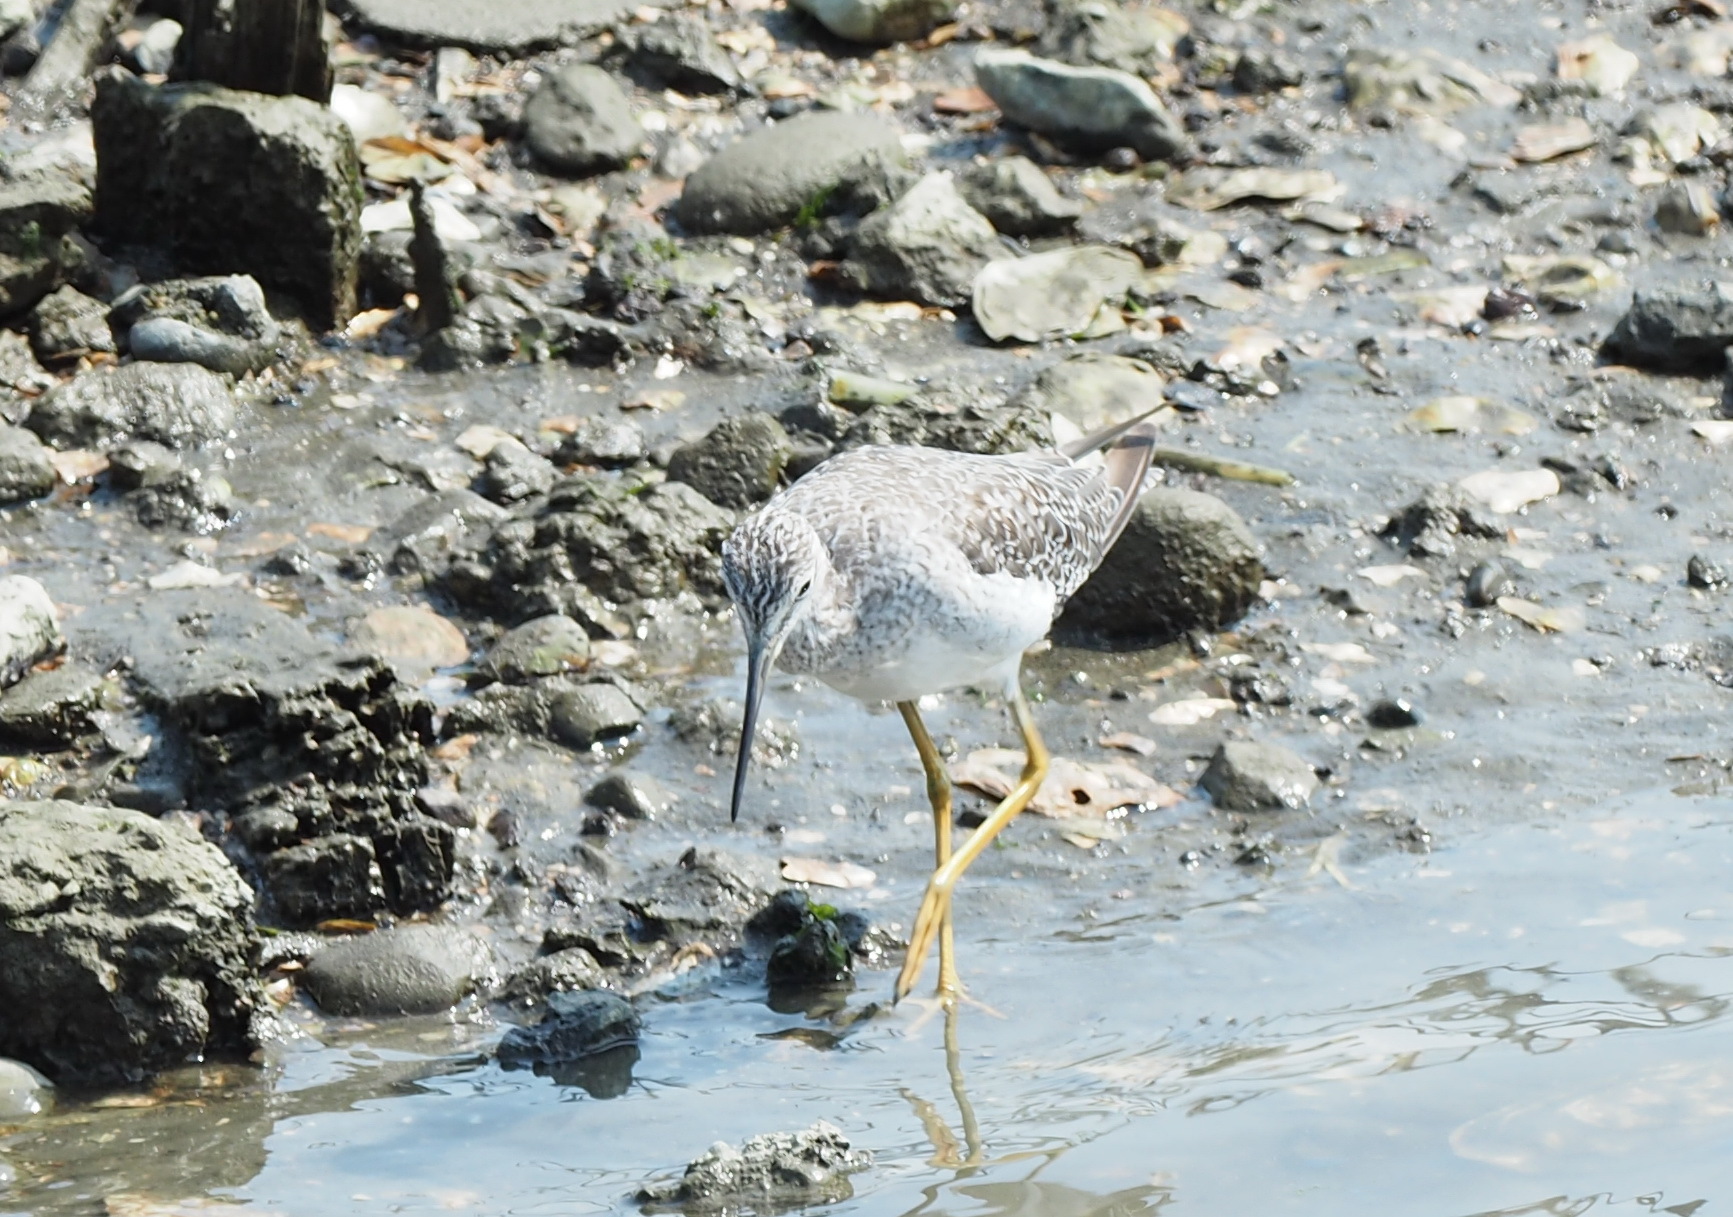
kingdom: Animalia
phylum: Chordata
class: Aves
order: Charadriiformes
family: Scolopacidae
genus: Tringa
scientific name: Tringa melanoleuca
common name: Greater yellowlegs
